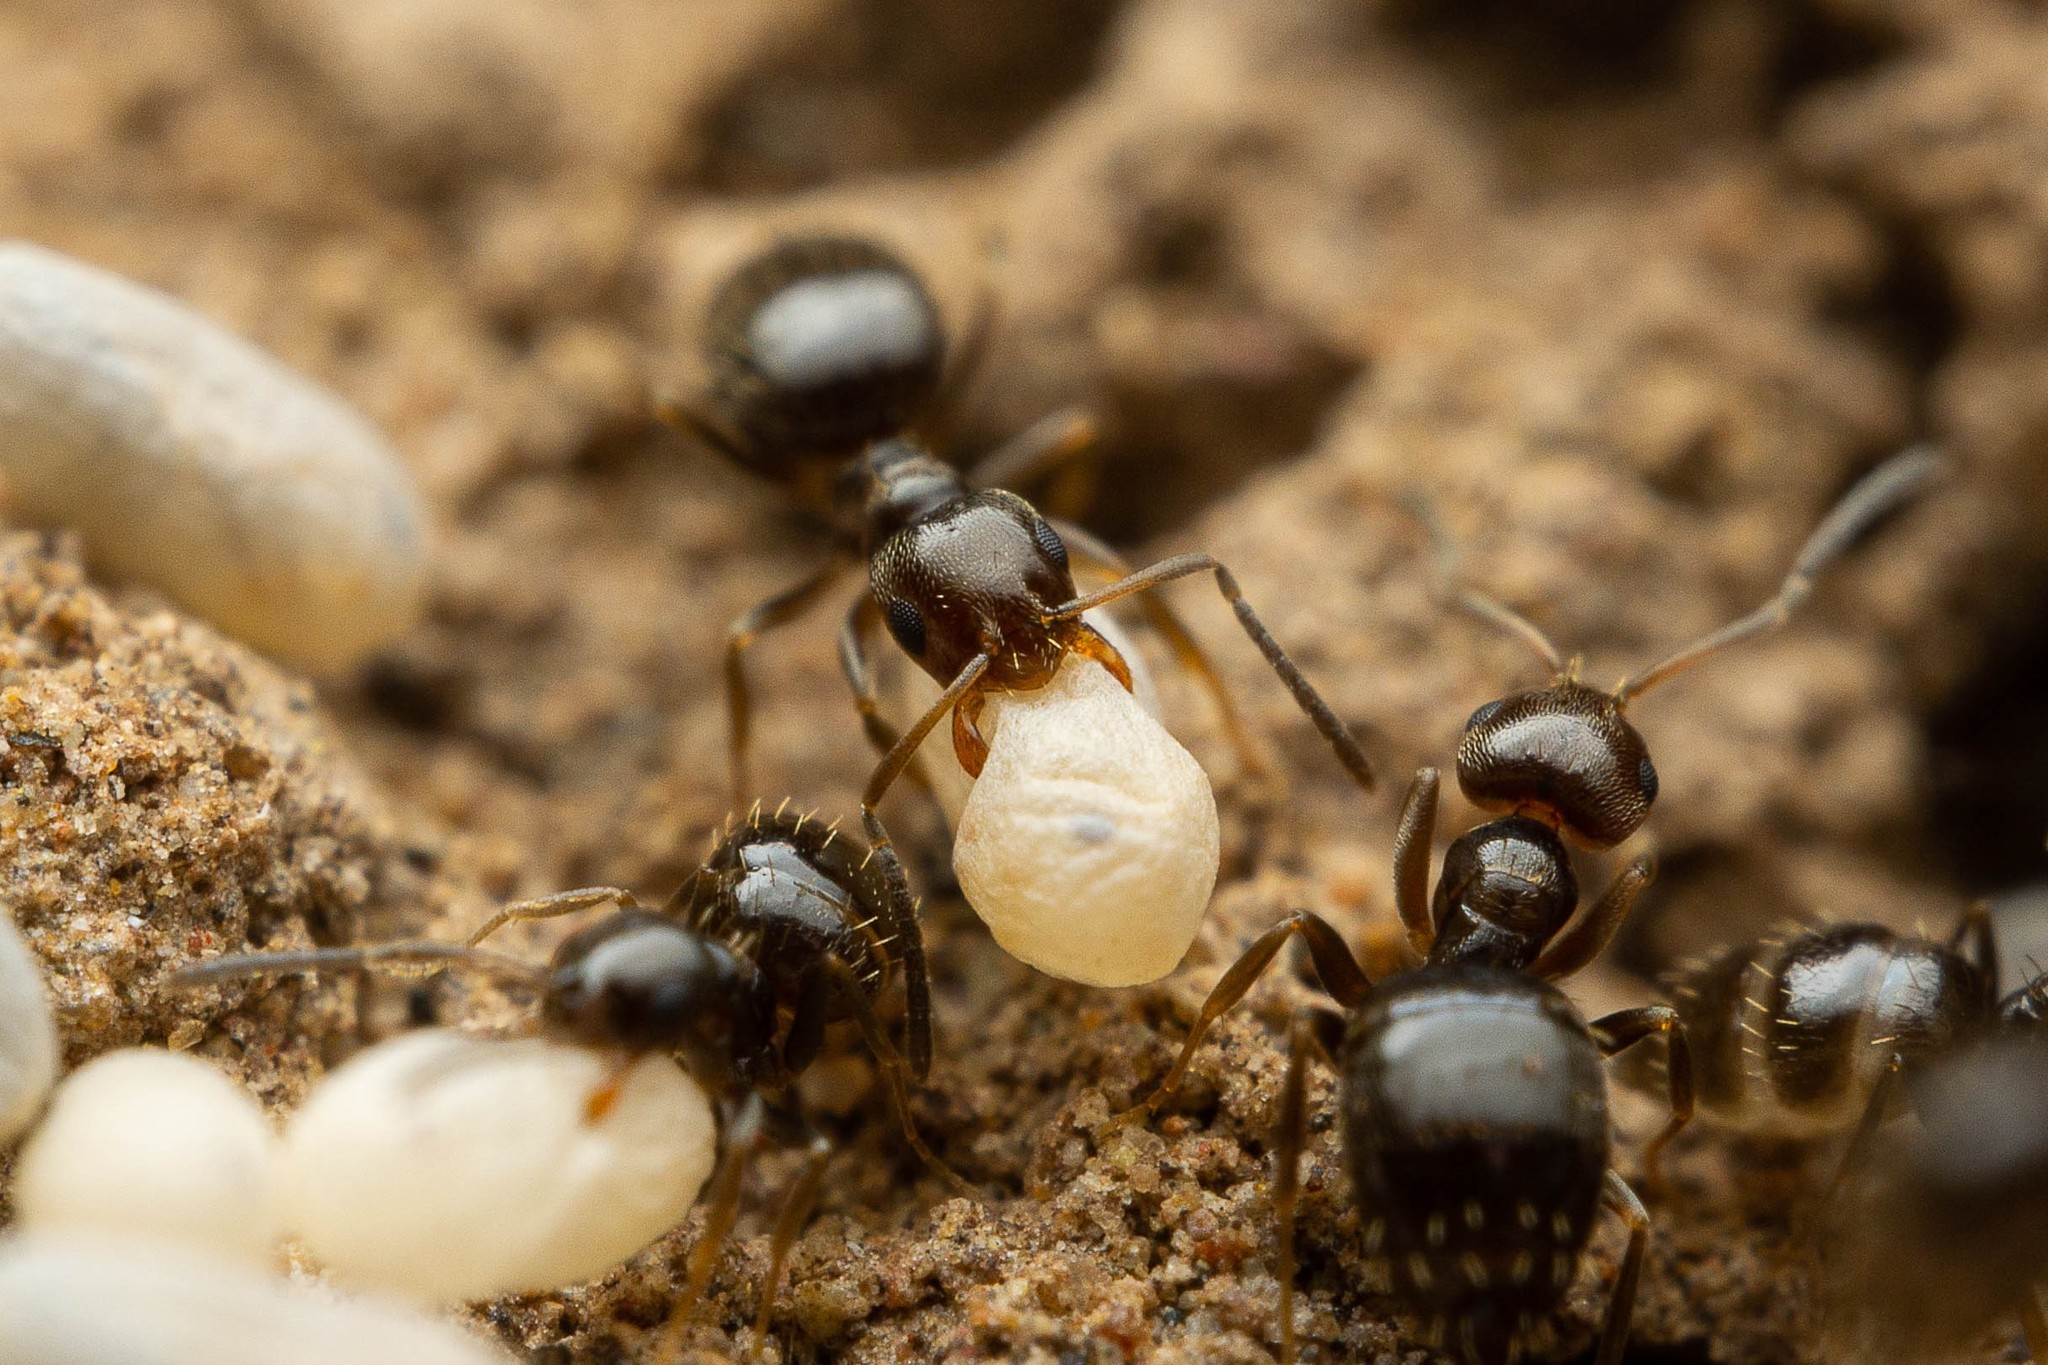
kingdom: Animalia
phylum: Arthropoda
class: Insecta
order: Hymenoptera
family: Formicidae
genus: Brachymyrmex
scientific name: Brachymyrmex patagonicus
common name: Dark rover ant
